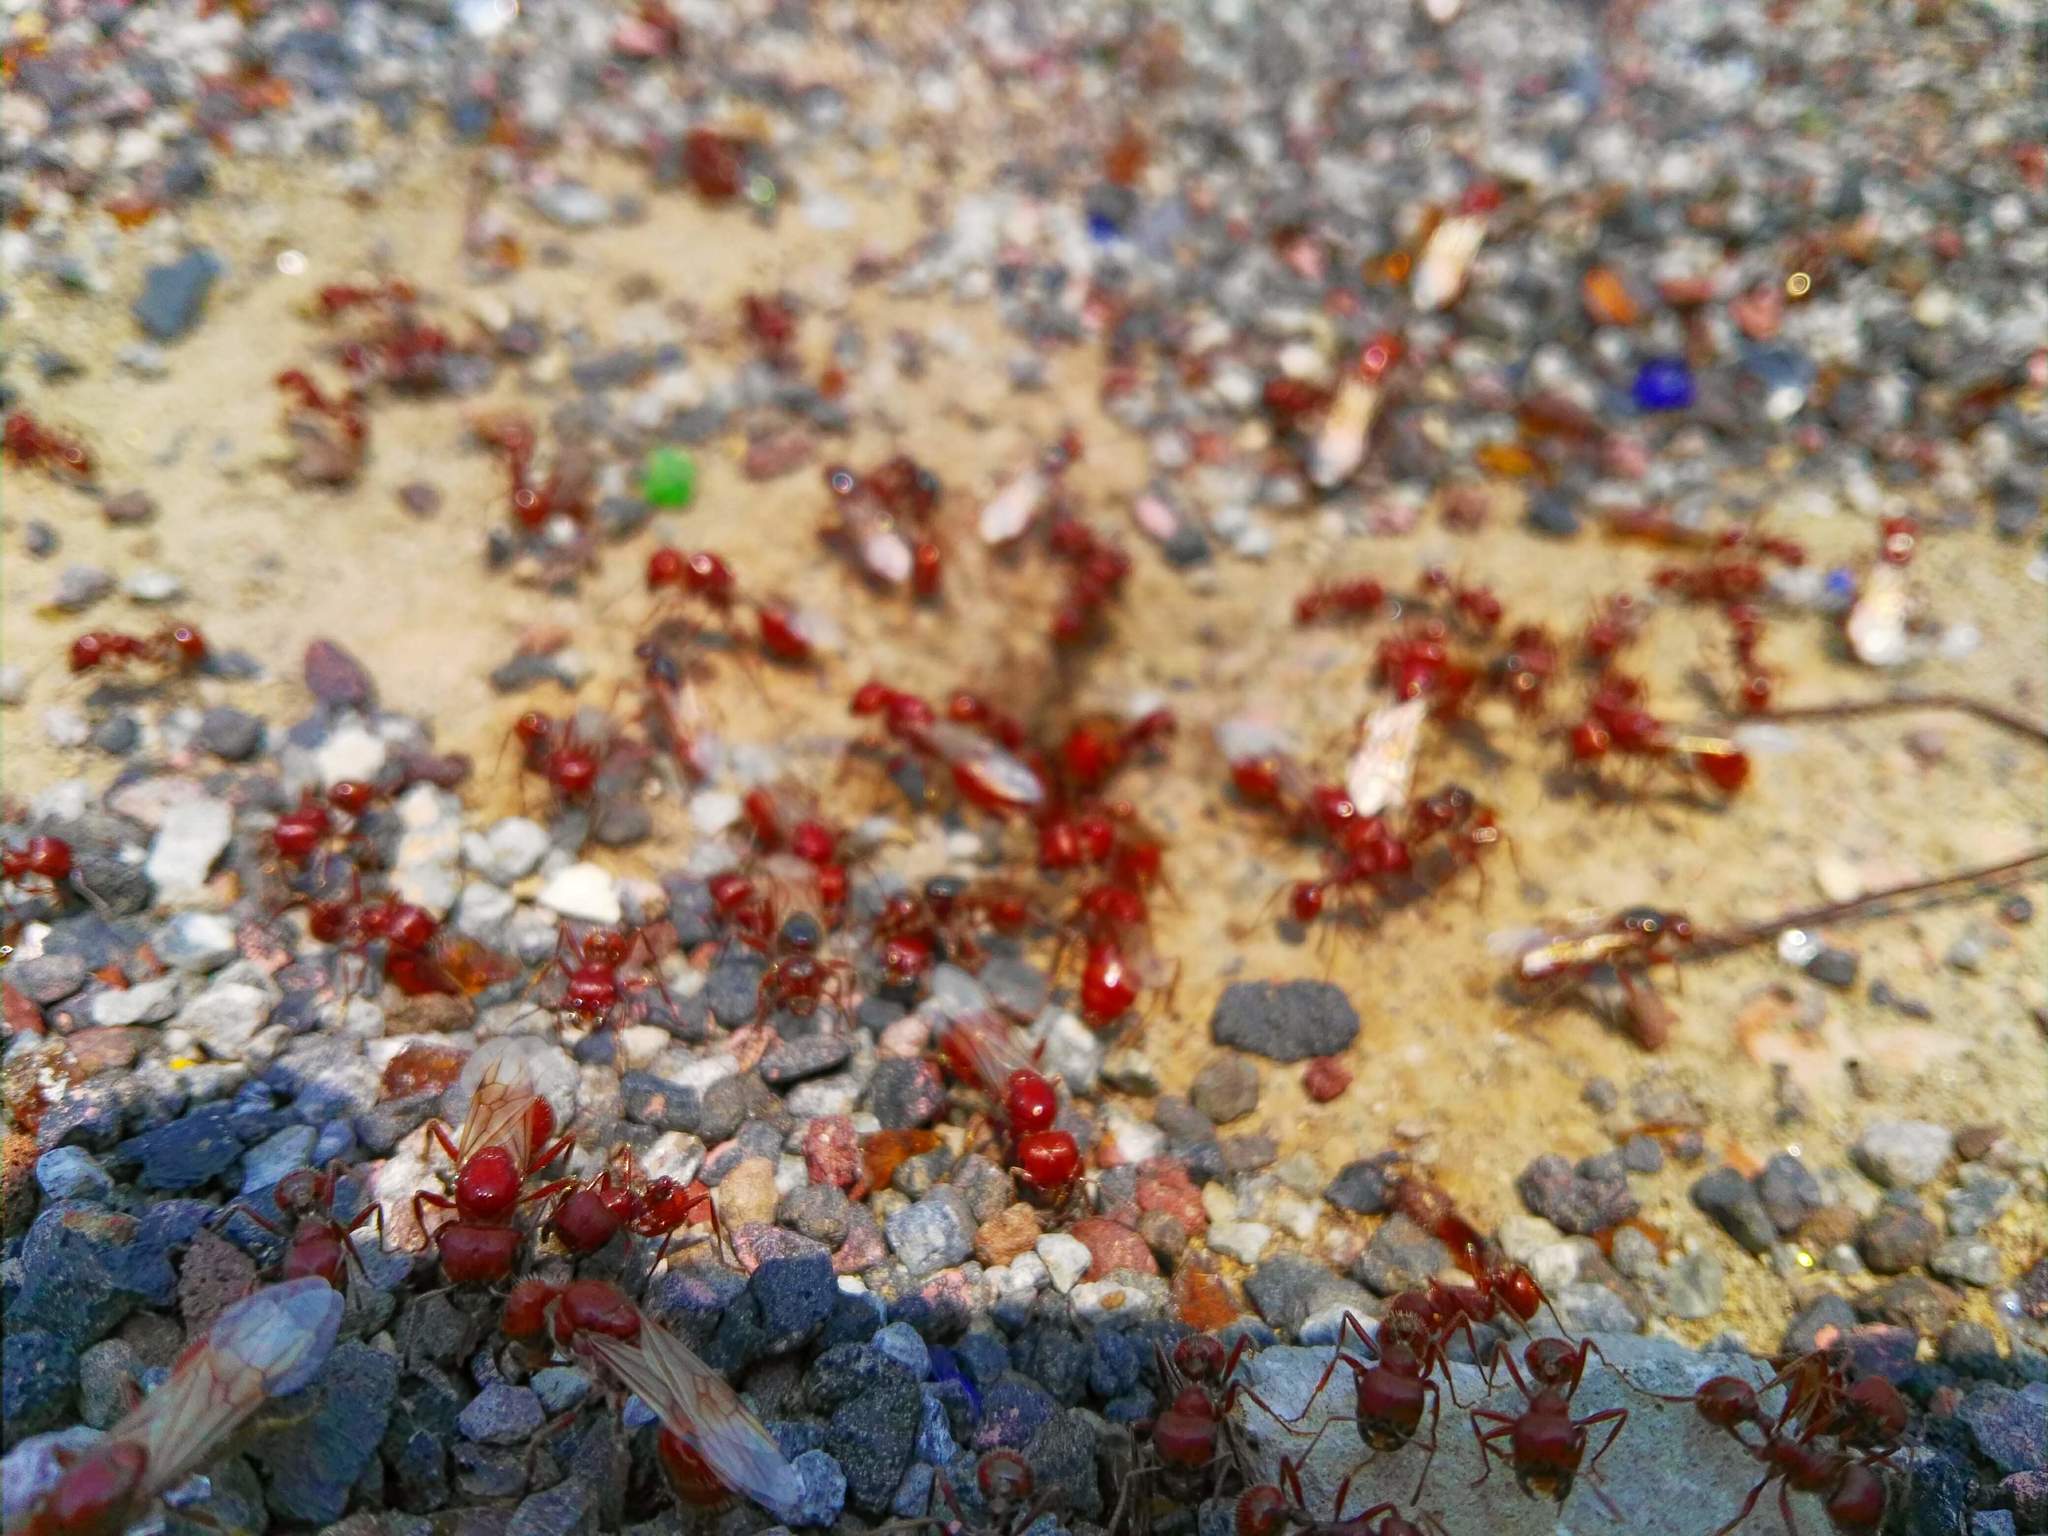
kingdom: Animalia
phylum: Arthropoda
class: Insecta
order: Hymenoptera
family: Formicidae
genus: Pogonomyrmex
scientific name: Pogonomyrmex barbatus
